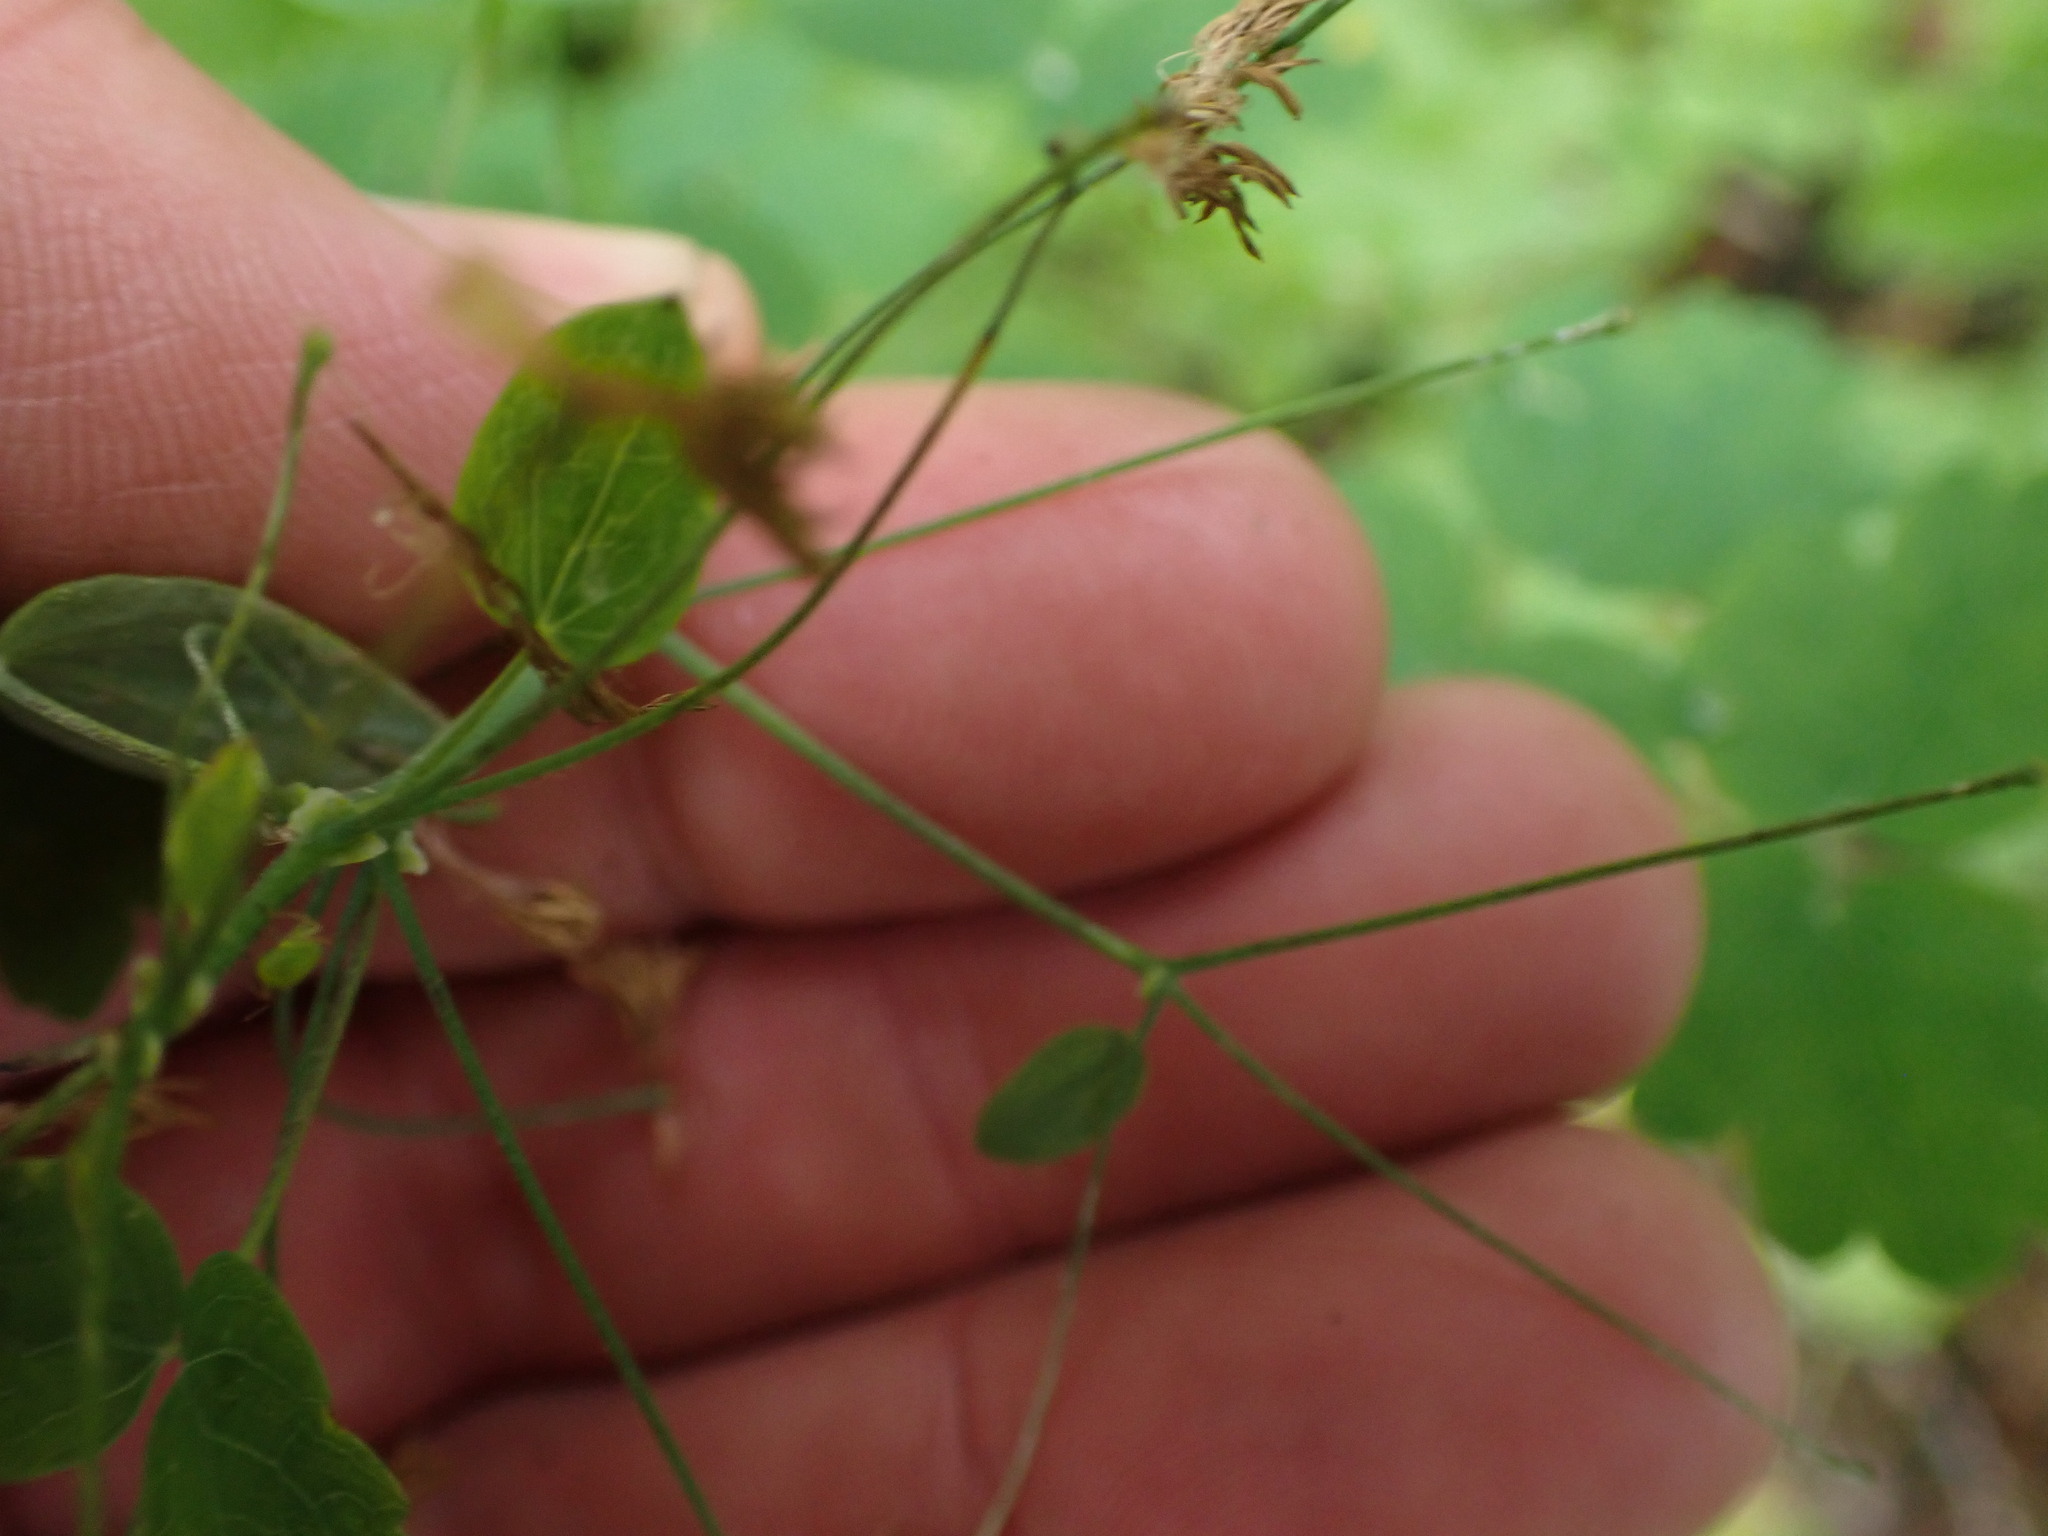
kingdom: Plantae
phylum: Tracheophyta
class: Magnoliopsida
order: Ranunculales
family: Ranunculaceae
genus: Thalictrum
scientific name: Thalictrum occidentale
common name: Western meadow-rue
